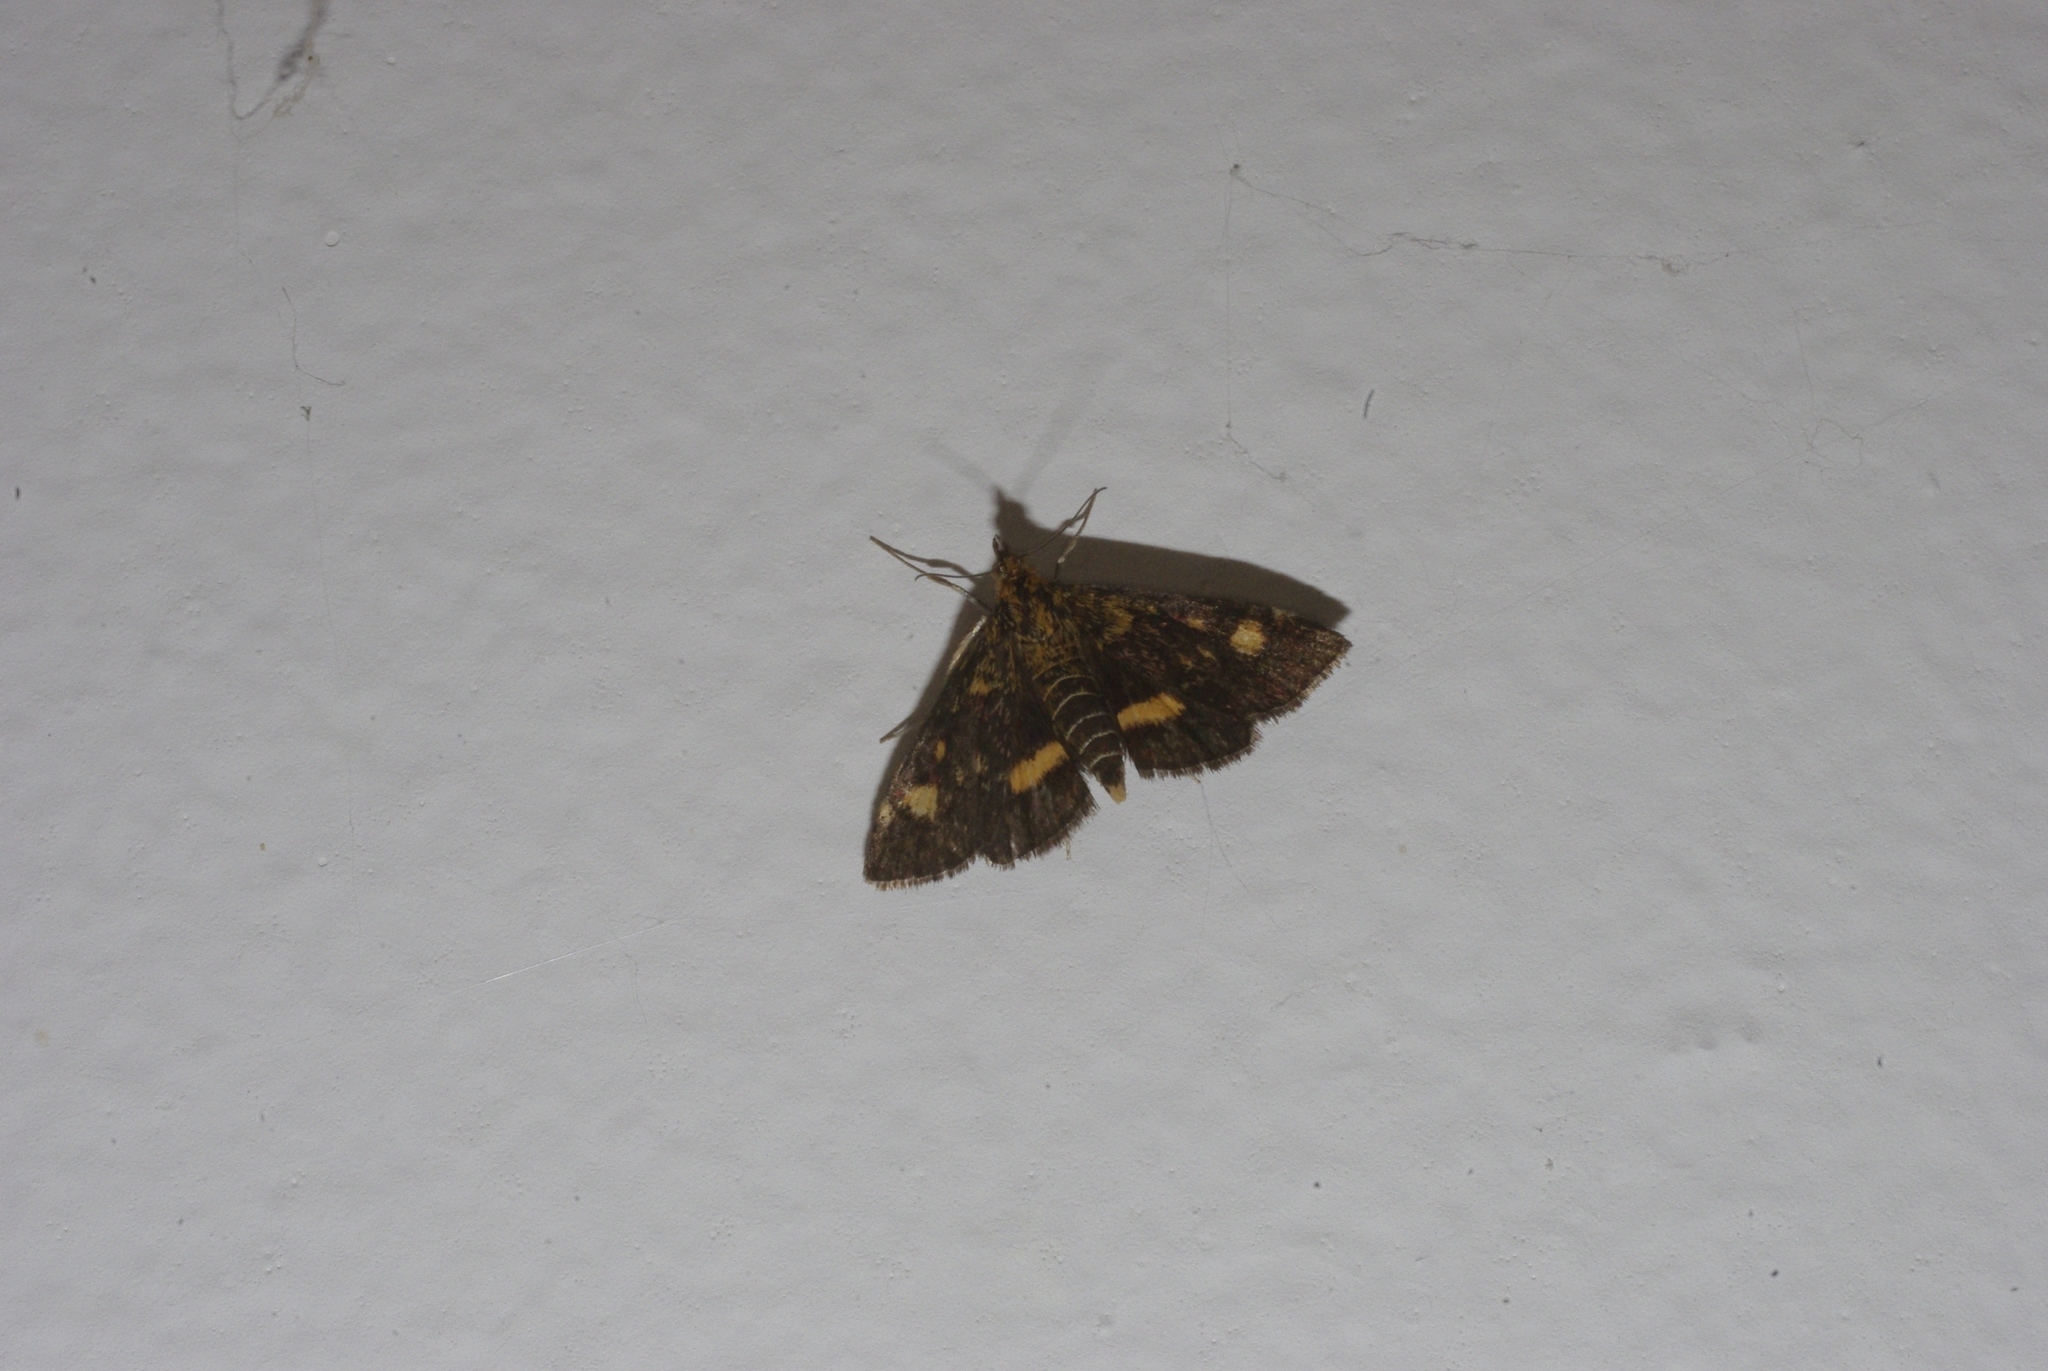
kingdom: Animalia
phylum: Arthropoda
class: Insecta
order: Lepidoptera
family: Crambidae
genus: Pyrausta
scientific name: Pyrausta aurata
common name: Small purple & gold
